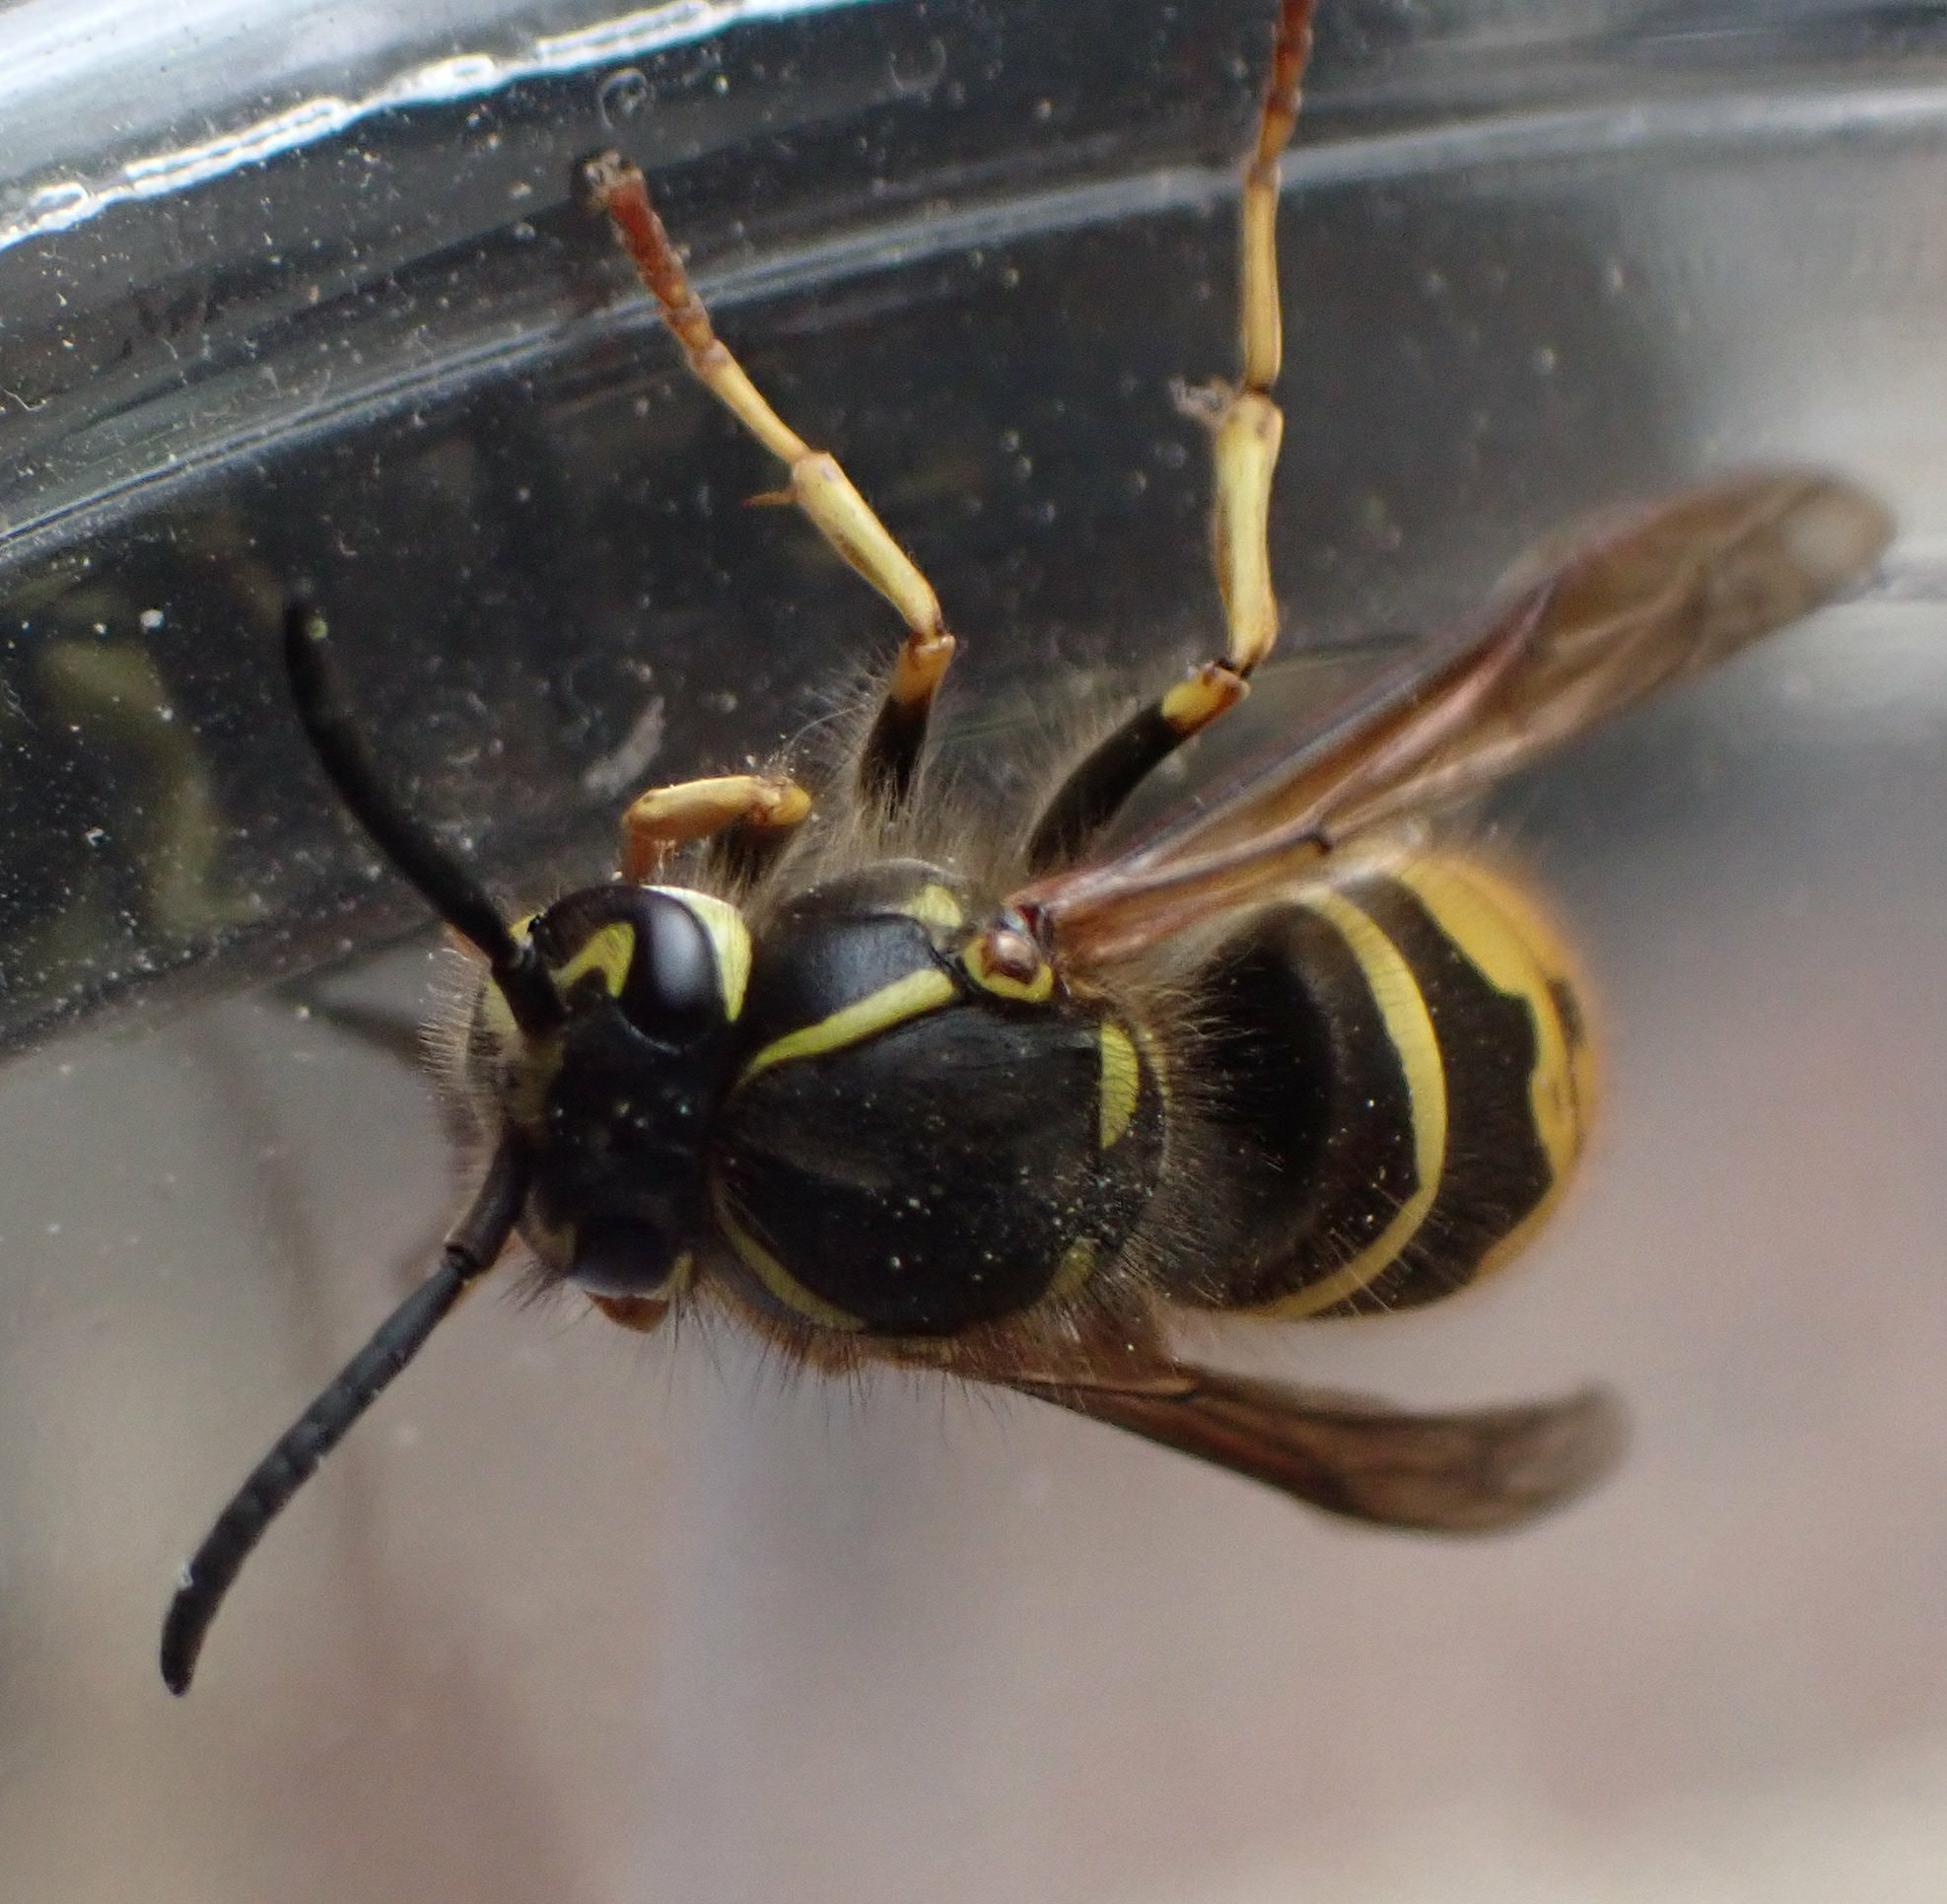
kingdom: Animalia
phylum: Arthropoda
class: Insecta
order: Hymenoptera
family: Vespidae
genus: Vespula
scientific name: Vespula alascensis
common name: Alaska yellowjacket
